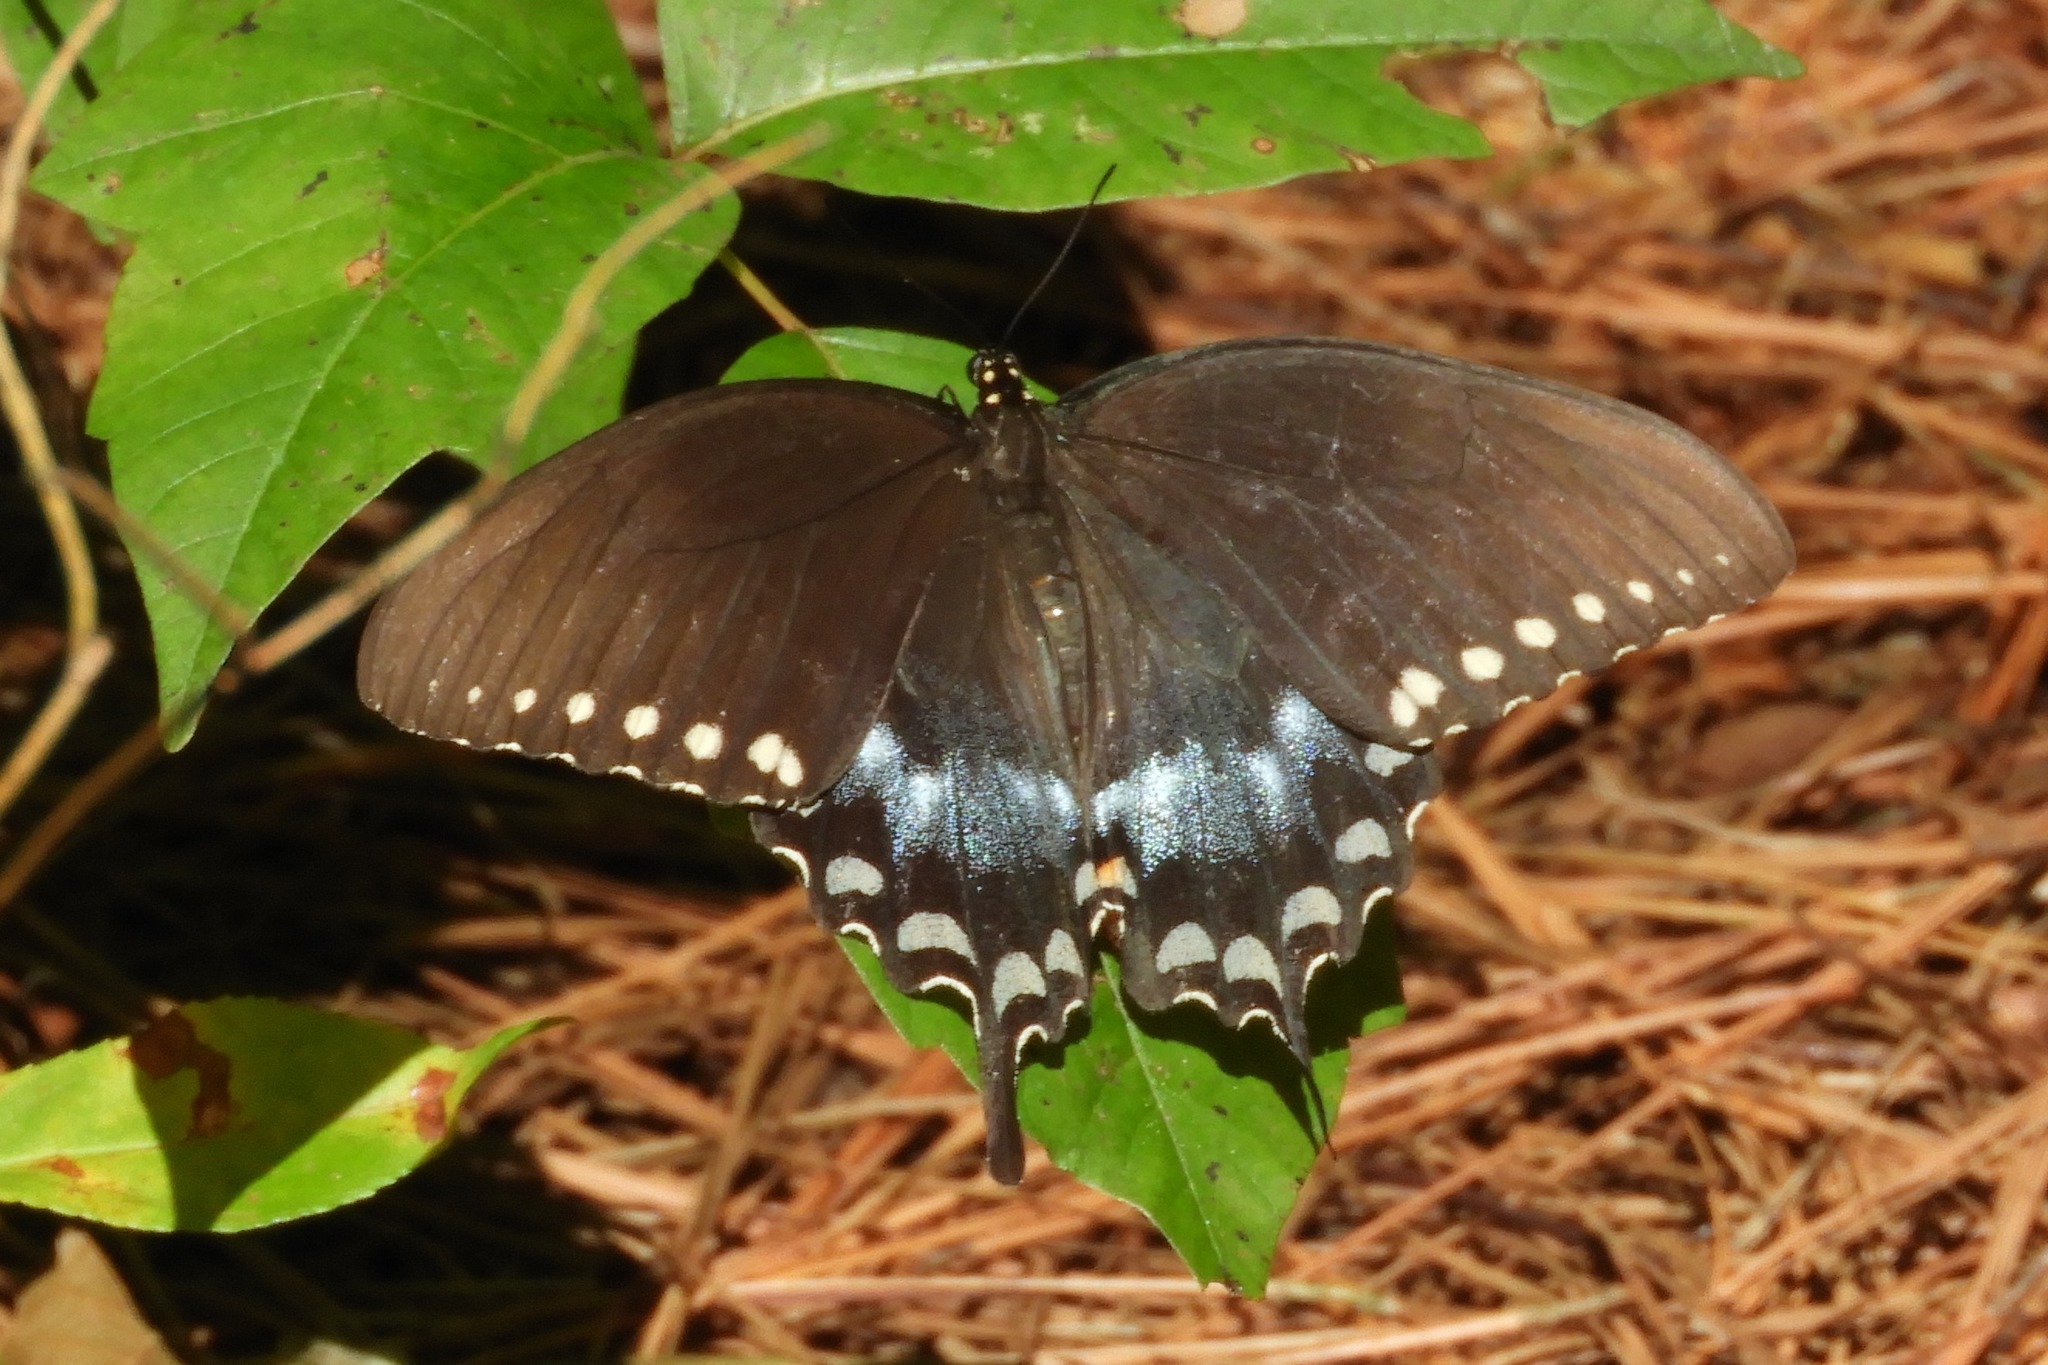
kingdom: Animalia
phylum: Arthropoda
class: Insecta
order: Lepidoptera
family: Papilionidae
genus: Papilio
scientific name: Papilio troilus
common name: Spicebush swallowtail
